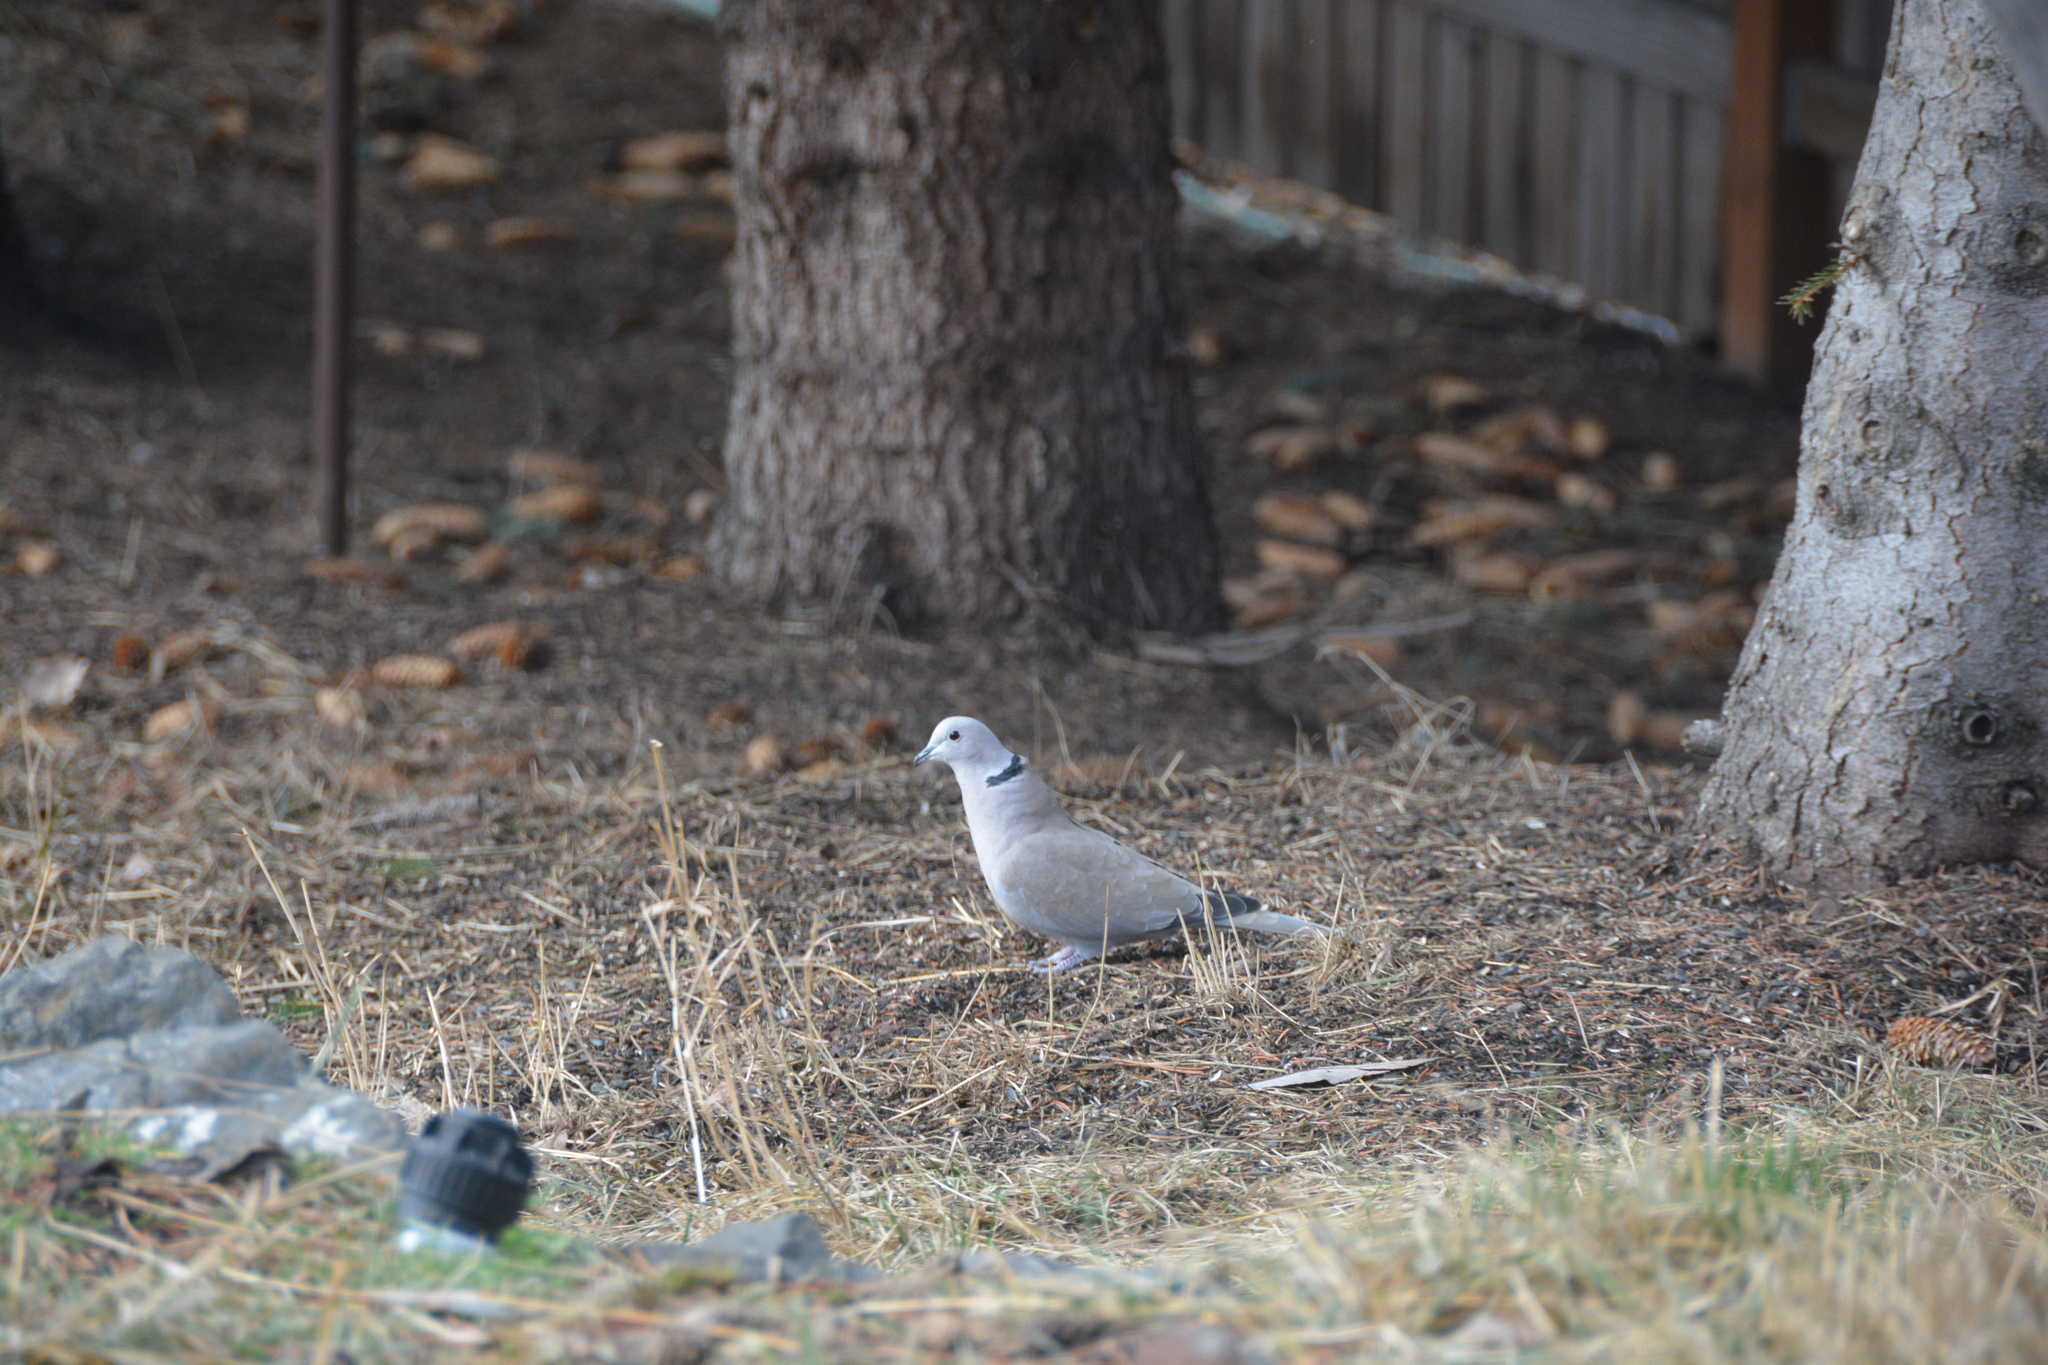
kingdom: Animalia
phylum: Chordata
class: Aves
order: Columbiformes
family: Columbidae
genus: Streptopelia
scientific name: Streptopelia decaocto
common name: Eurasian collared dove
